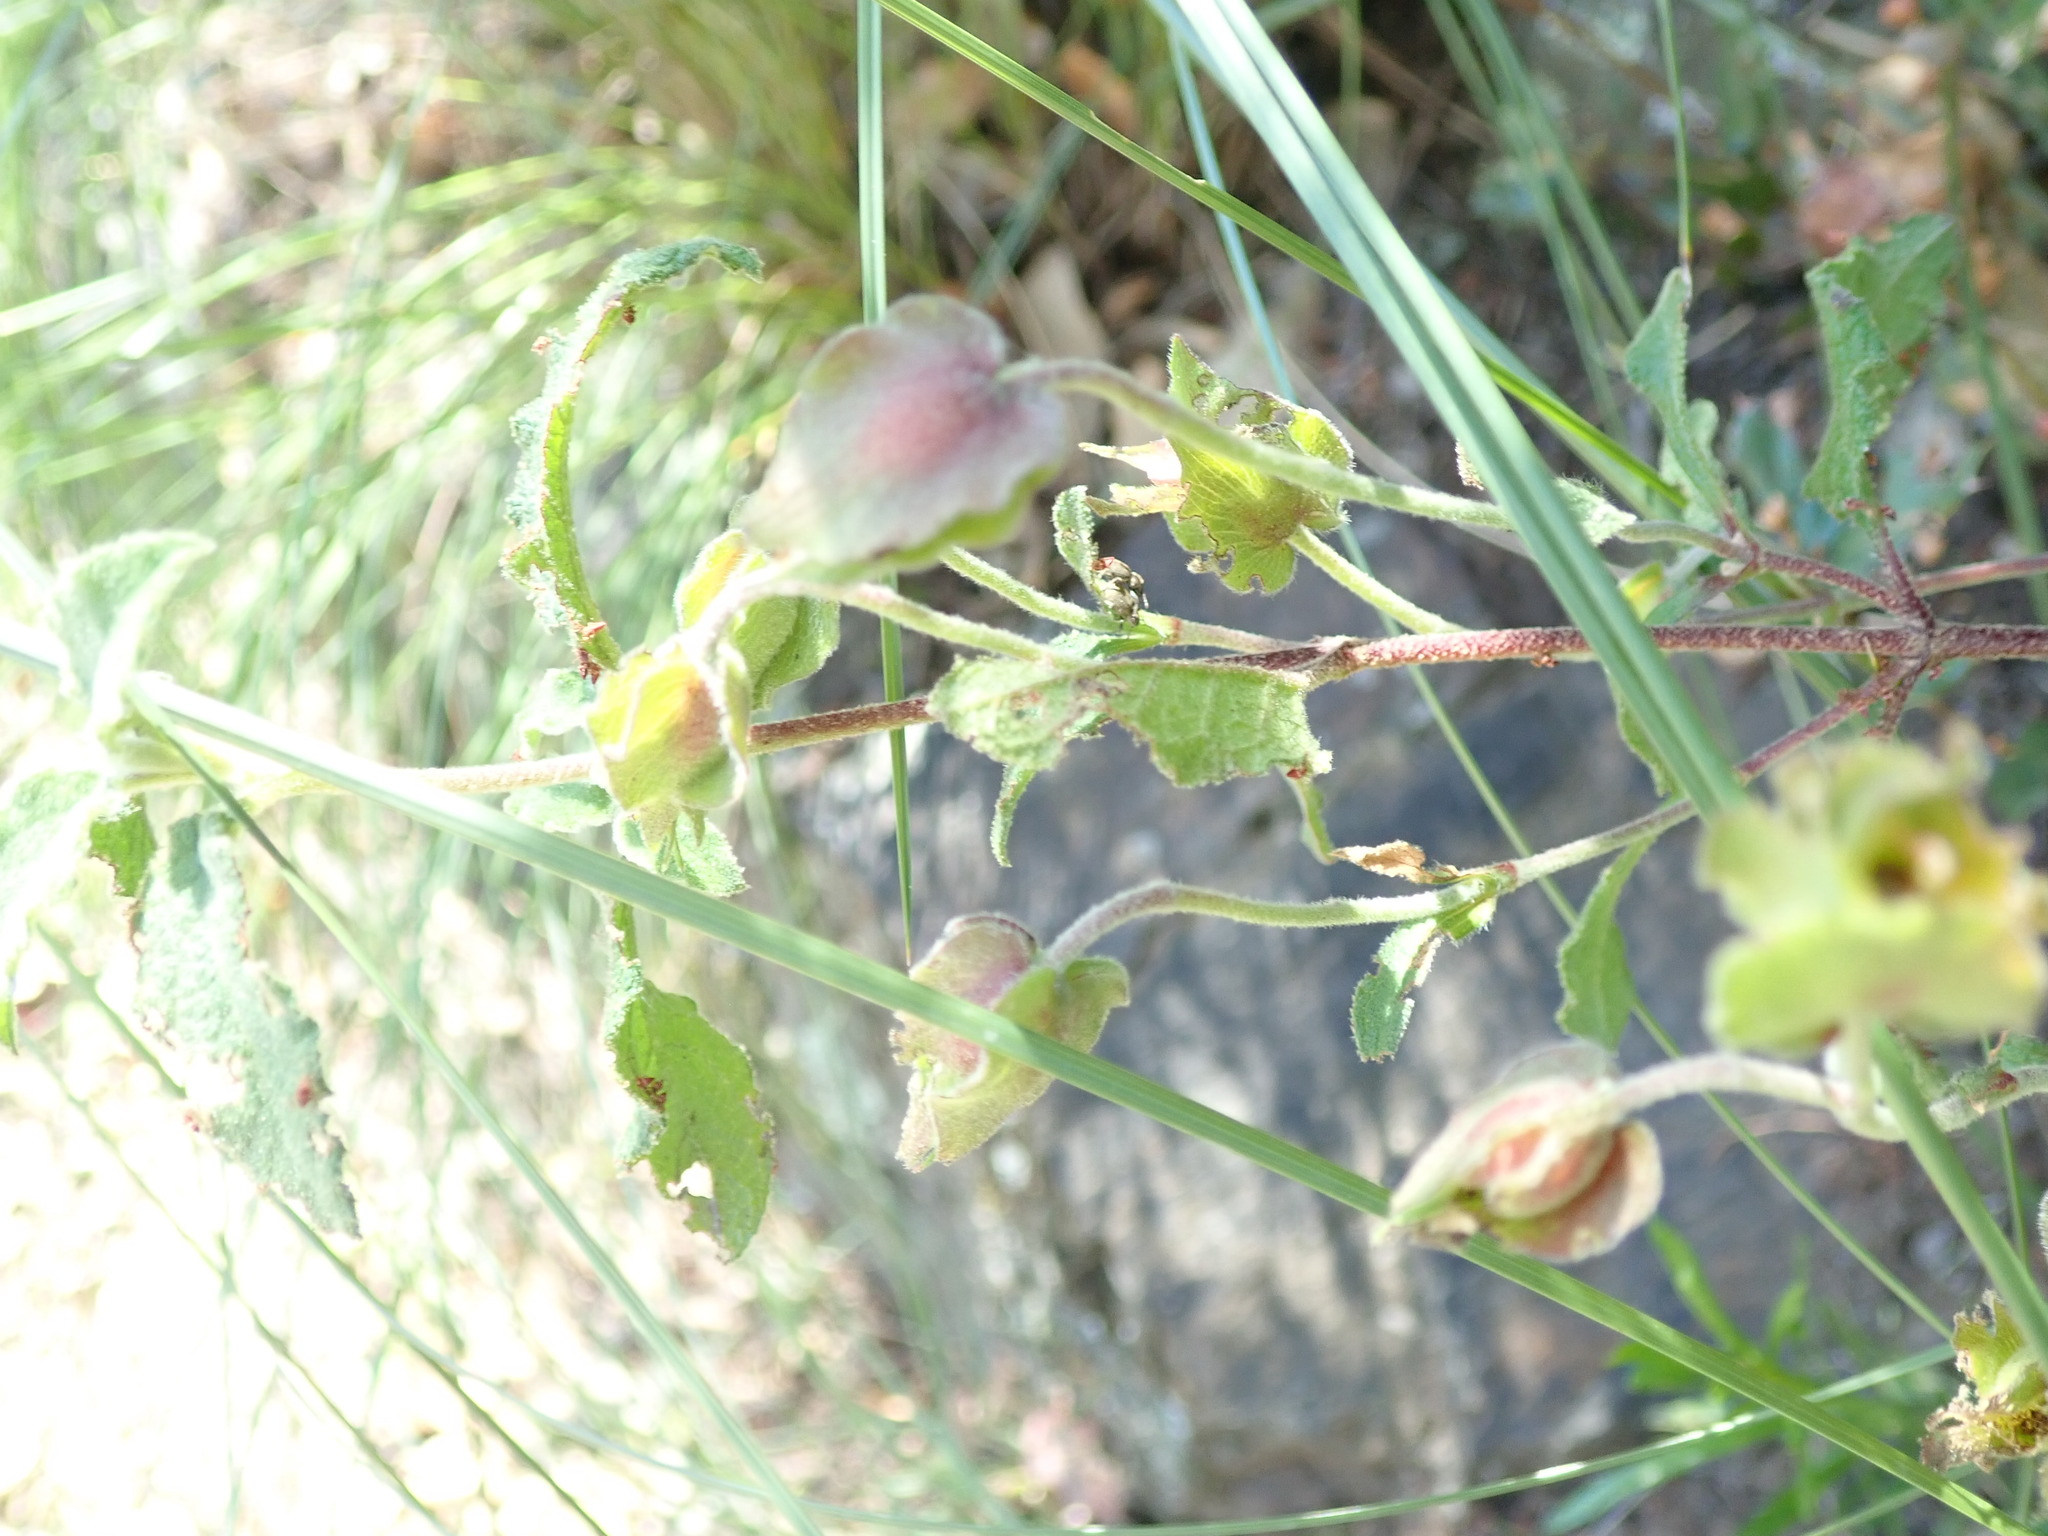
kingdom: Plantae
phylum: Tracheophyta
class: Magnoliopsida
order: Malvales
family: Cistaceae
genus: Cistus
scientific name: Cistus salviifolius
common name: Salvia cistus
